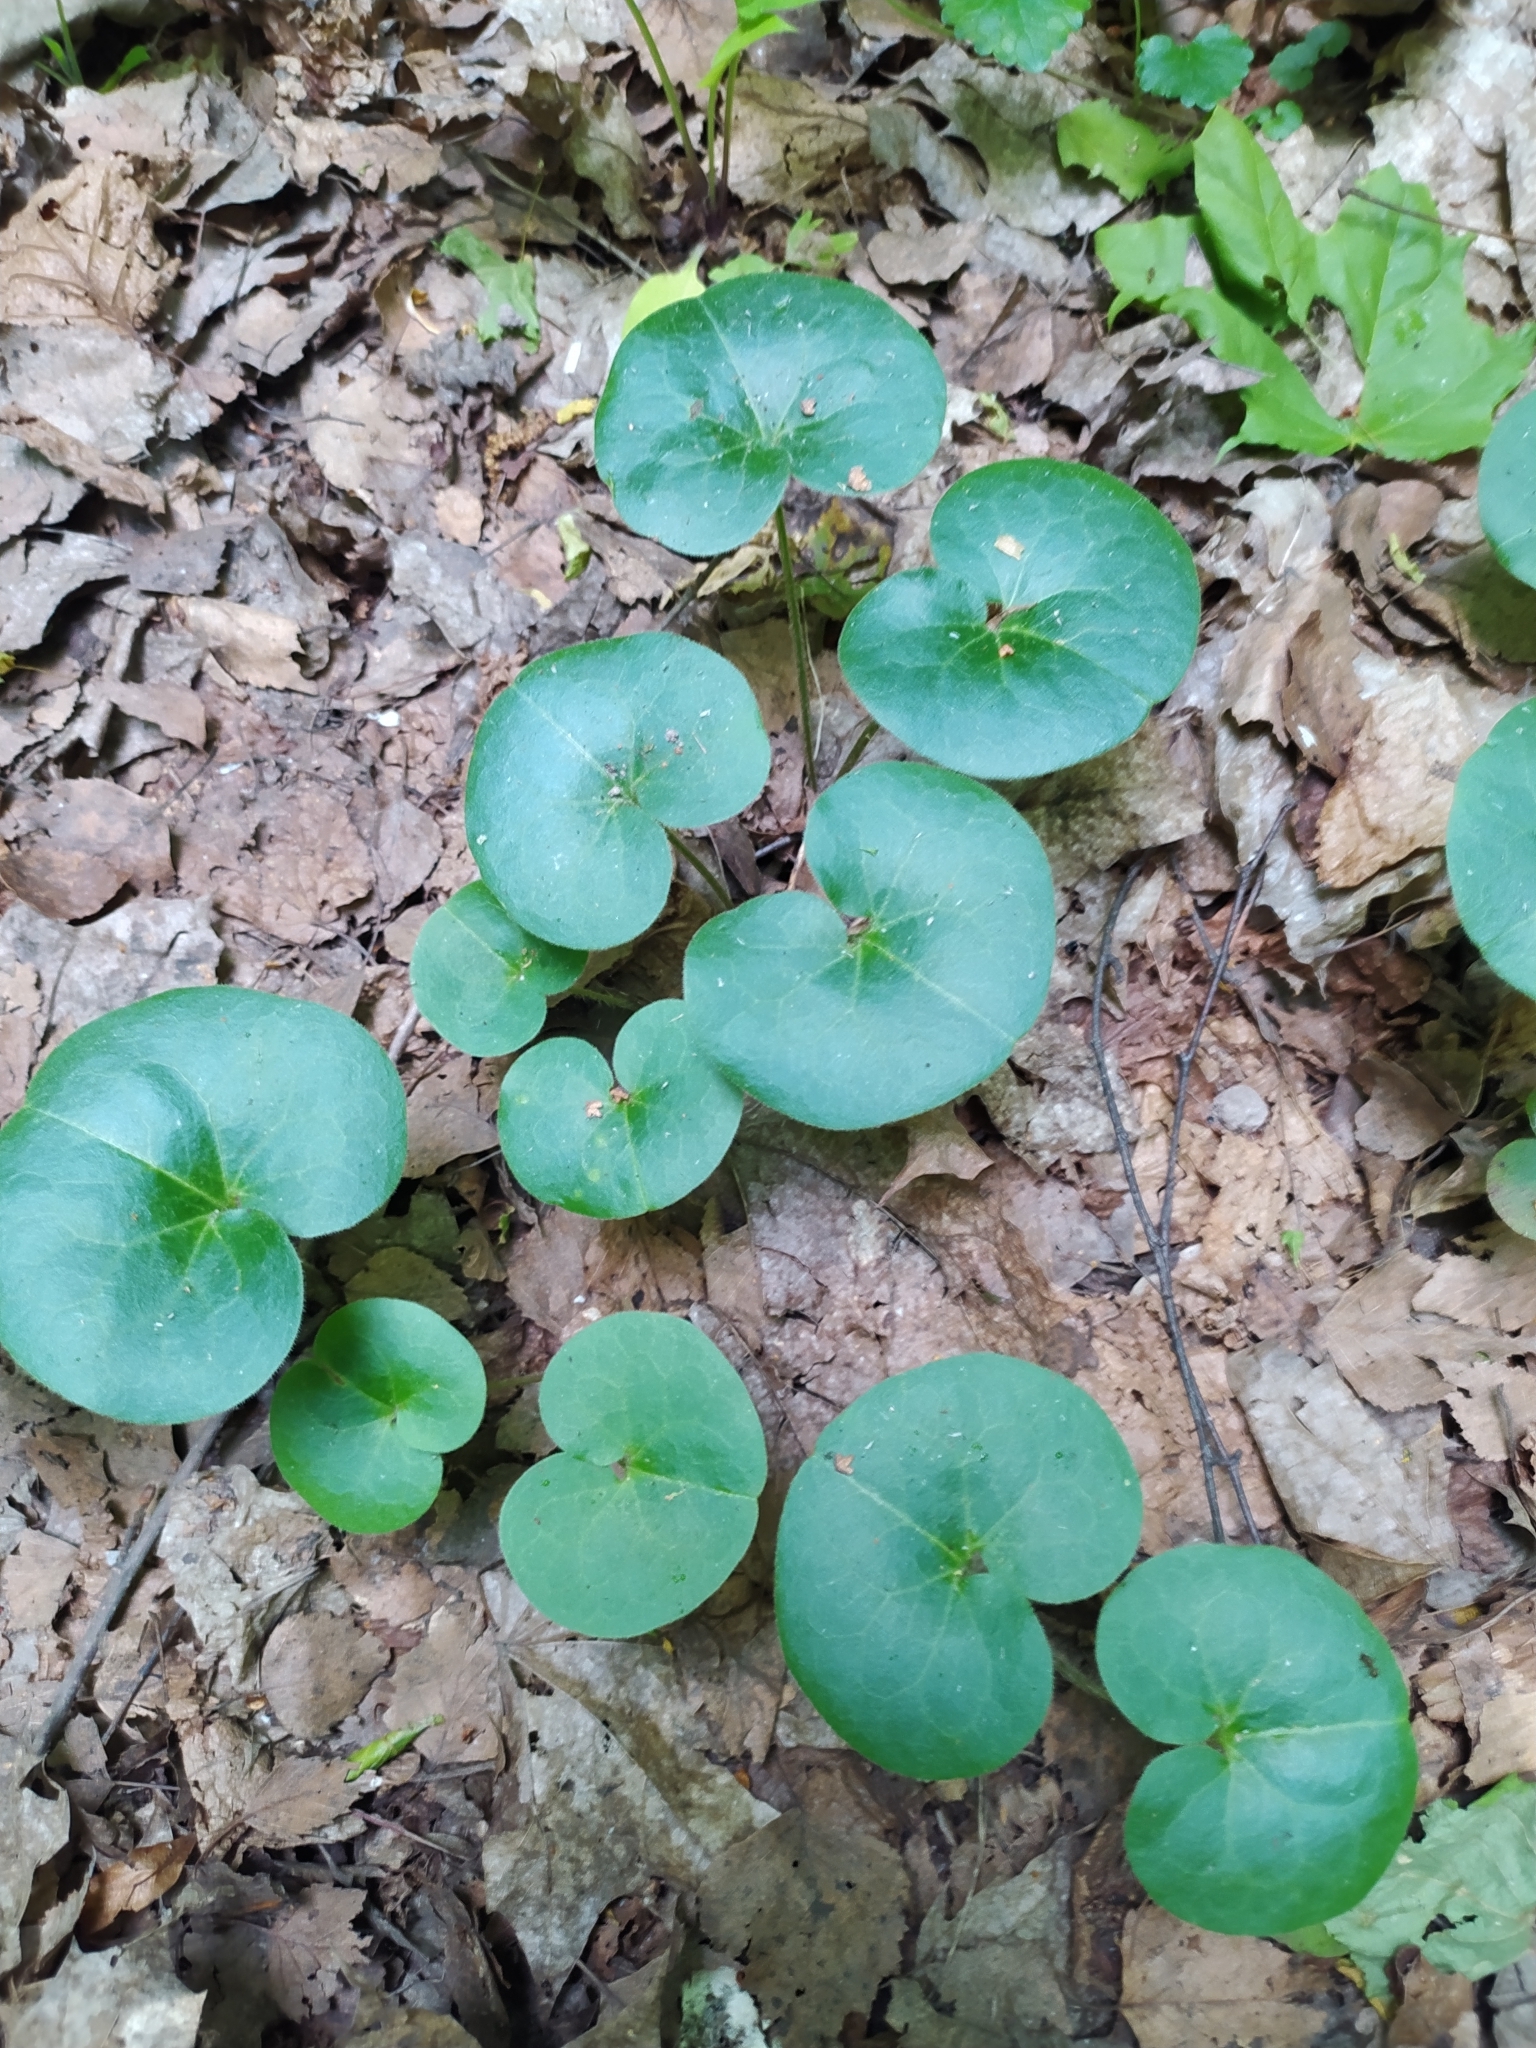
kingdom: Plantae
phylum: Tracheophyta
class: Magnoliopsida
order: Piperales
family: Aristolochiaceae
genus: Asarum
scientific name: Asarum europaeum
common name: Asarabacca
